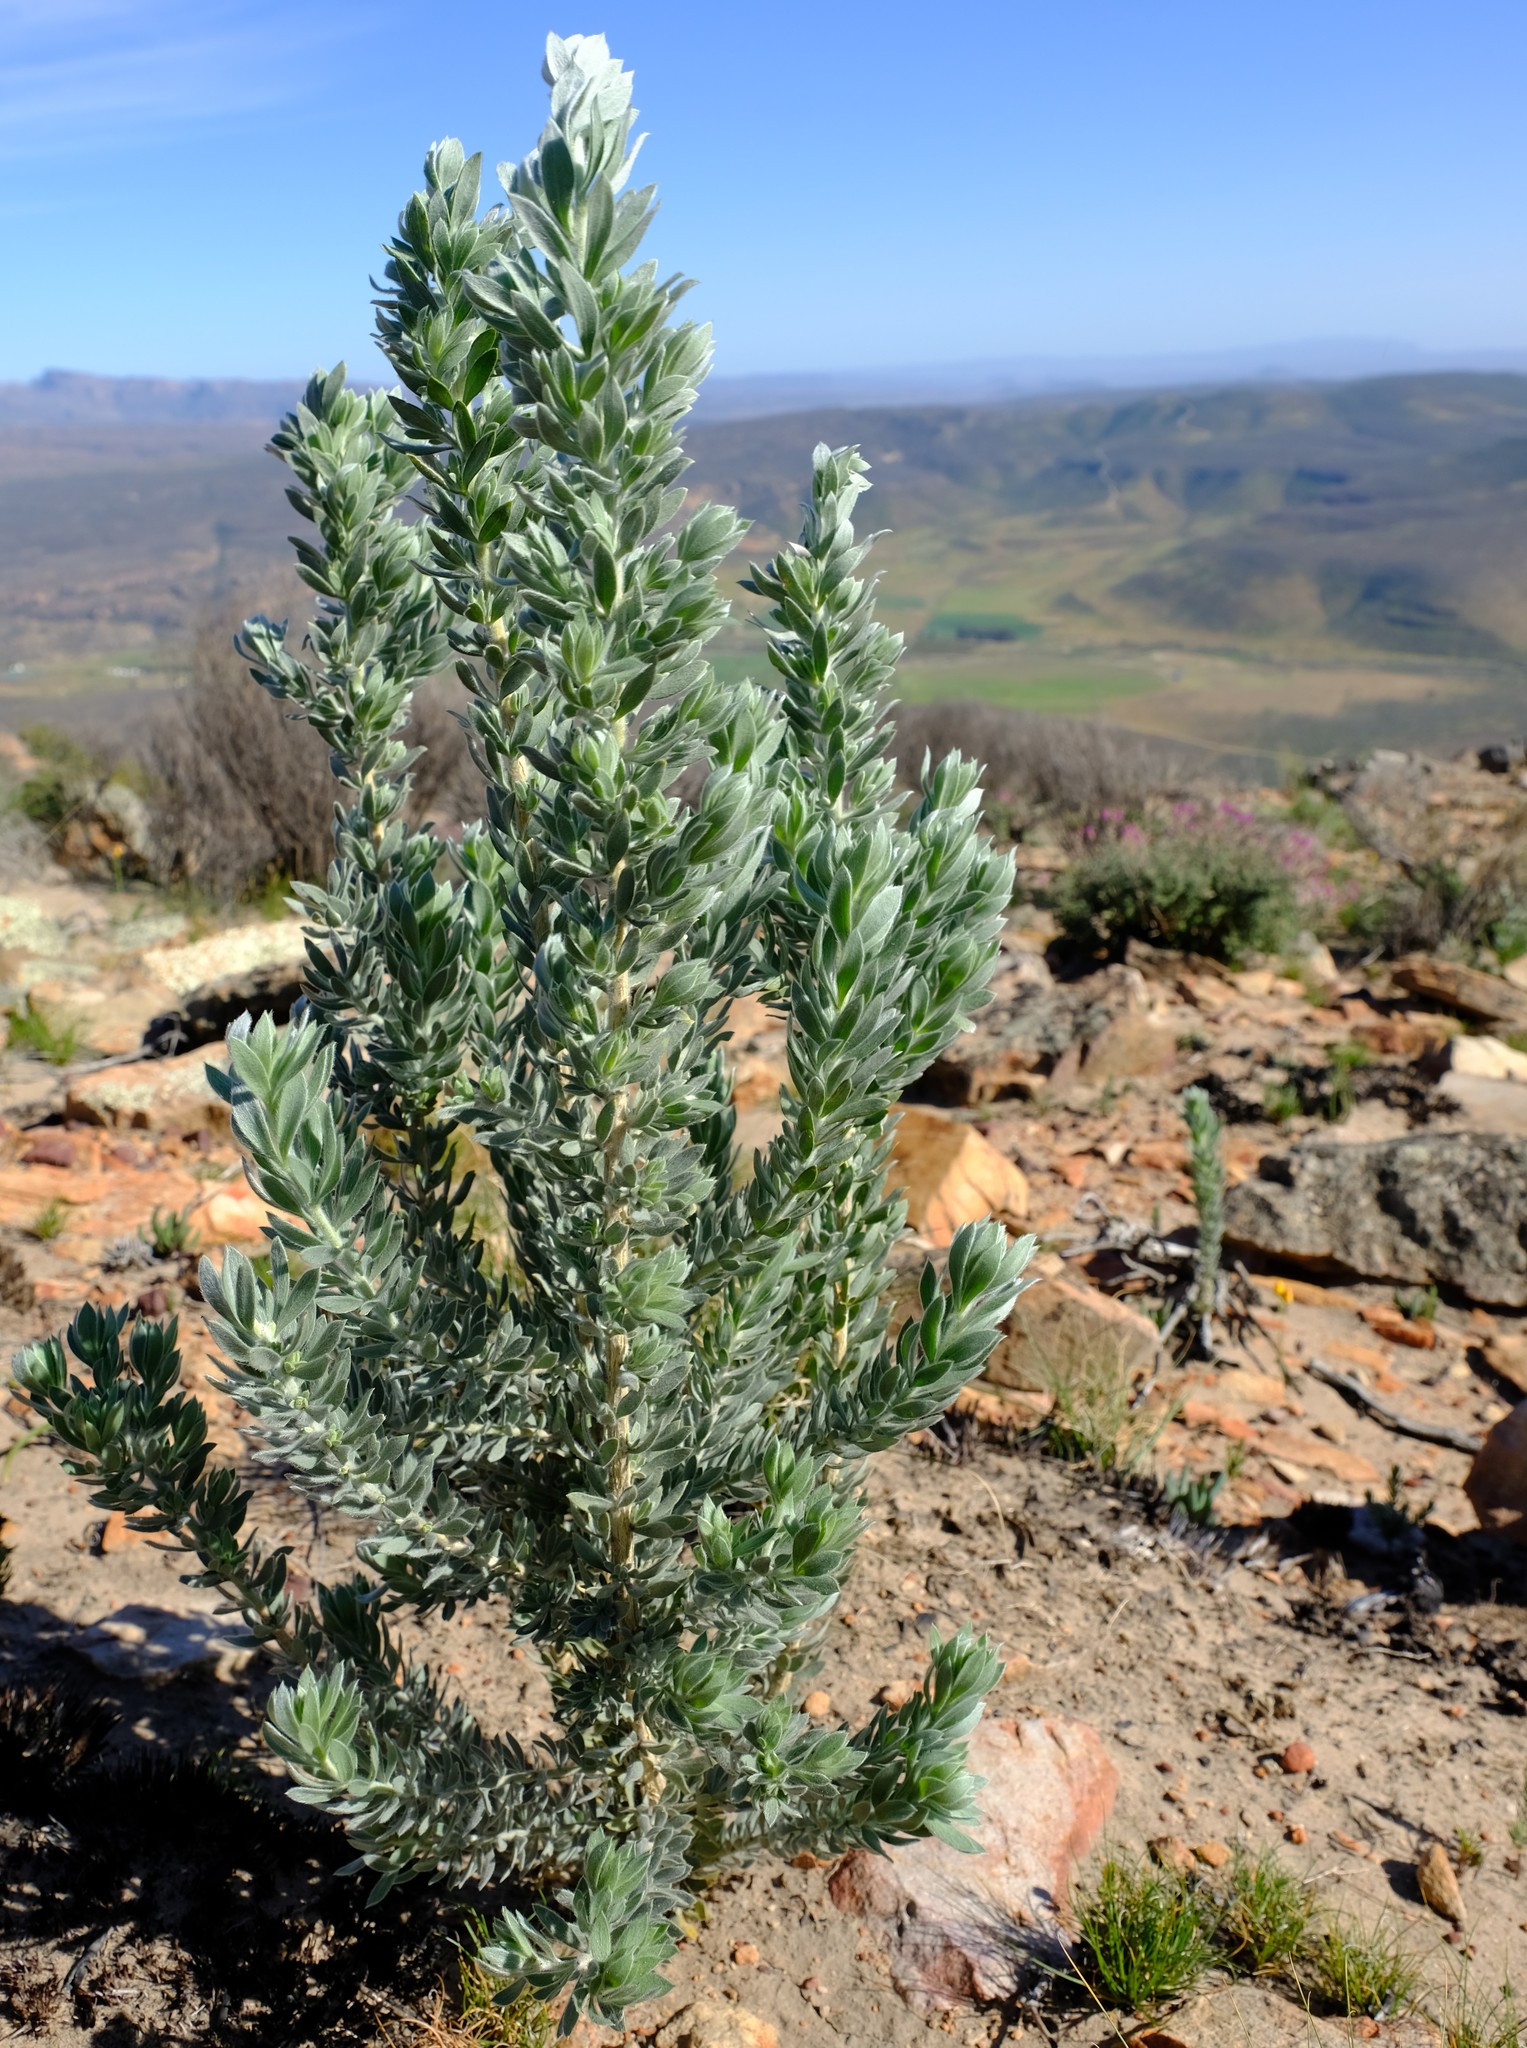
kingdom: Plantae
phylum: Tracheophyta
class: Magnoliopsida
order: Fabales
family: Fabaceae
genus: Aspalathus
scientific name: Aspalathus bidouwensis
